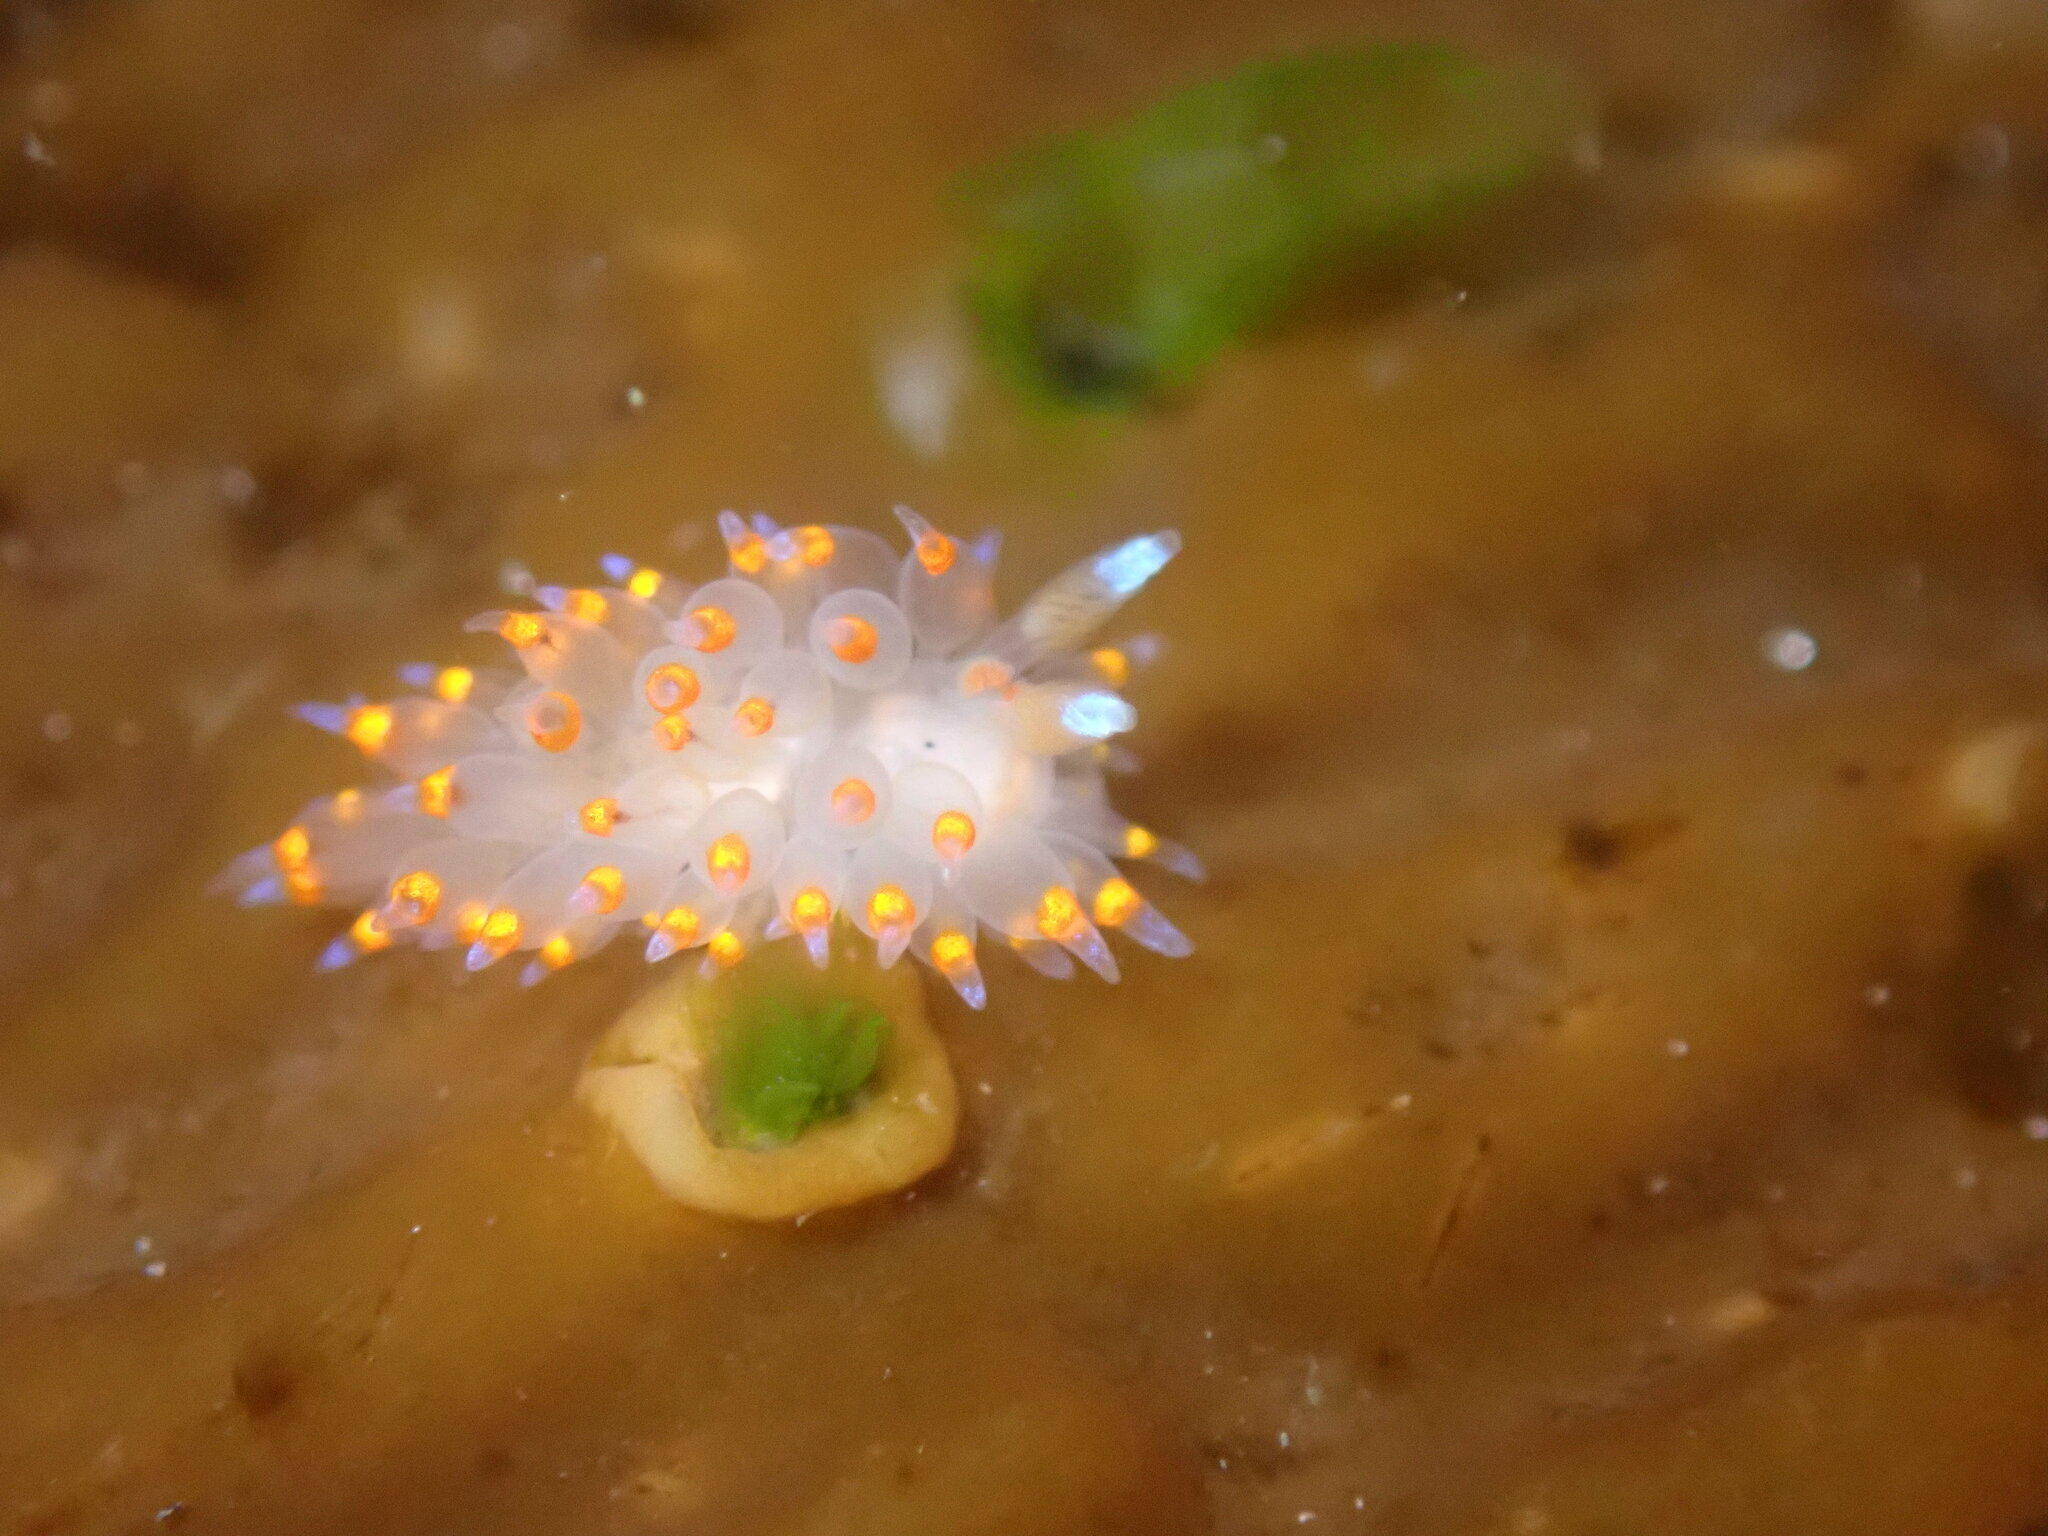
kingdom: Animalia
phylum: Mollusca
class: Gastropoda
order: Nudibranchia
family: Janolidae
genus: Antiopella
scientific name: Antiopella barbarensis
